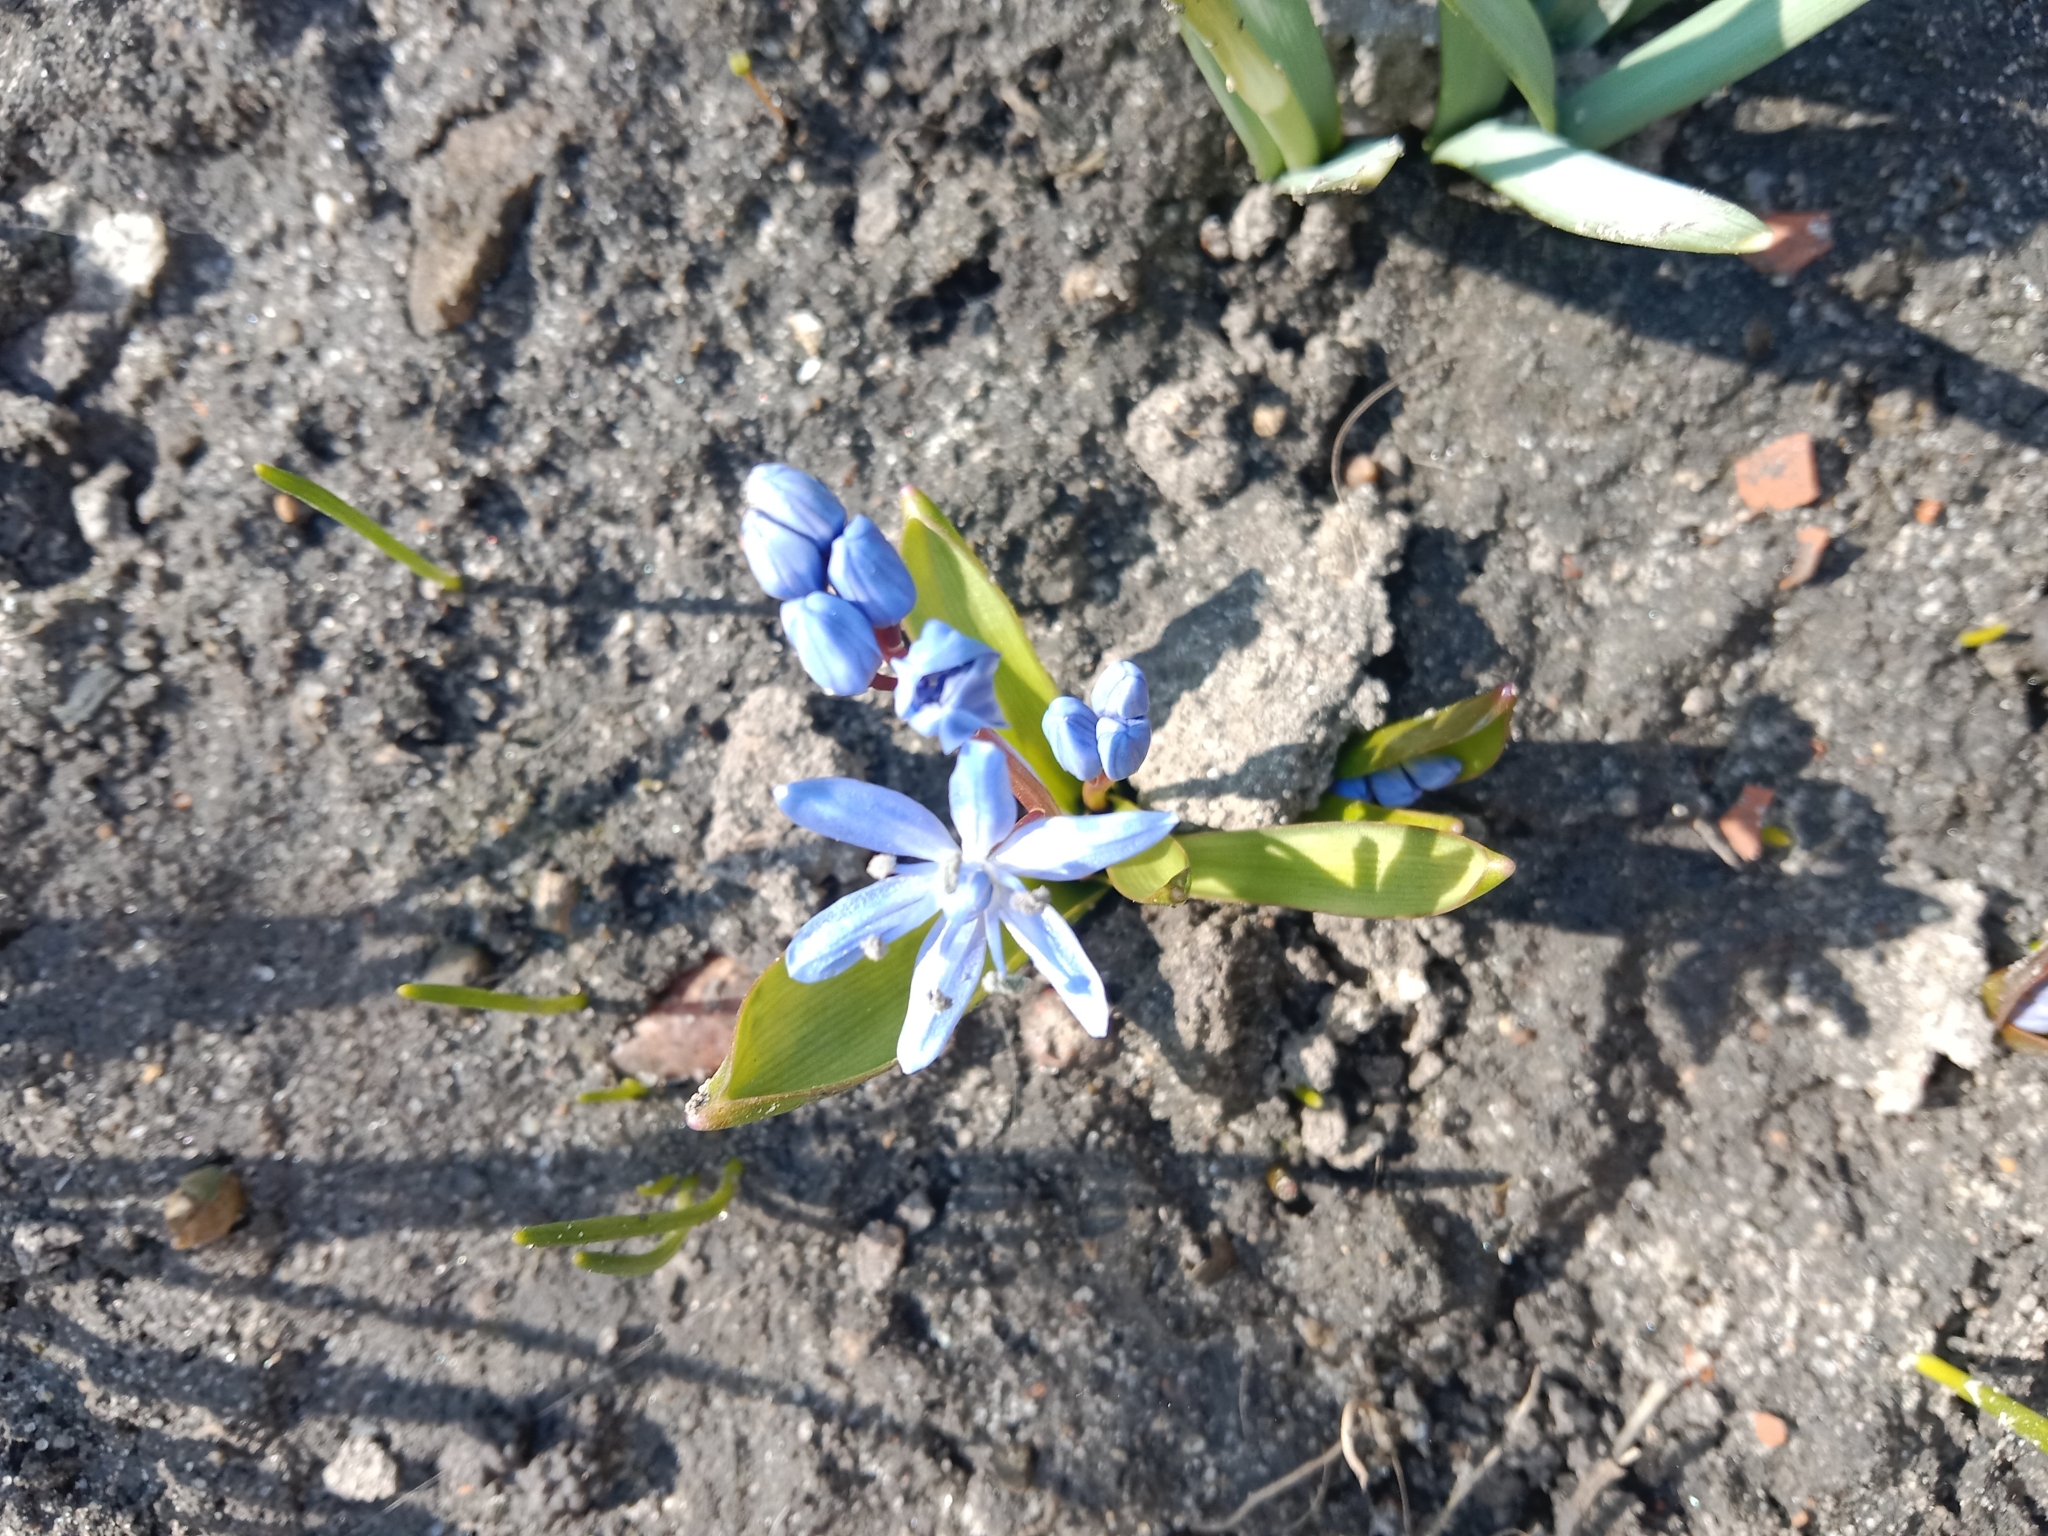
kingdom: Plantae
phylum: Tracheophyta
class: Liliopsida
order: Asparagales
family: Asparagaceae
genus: Scilla
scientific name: Scilla bifolia
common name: Alpine squill
